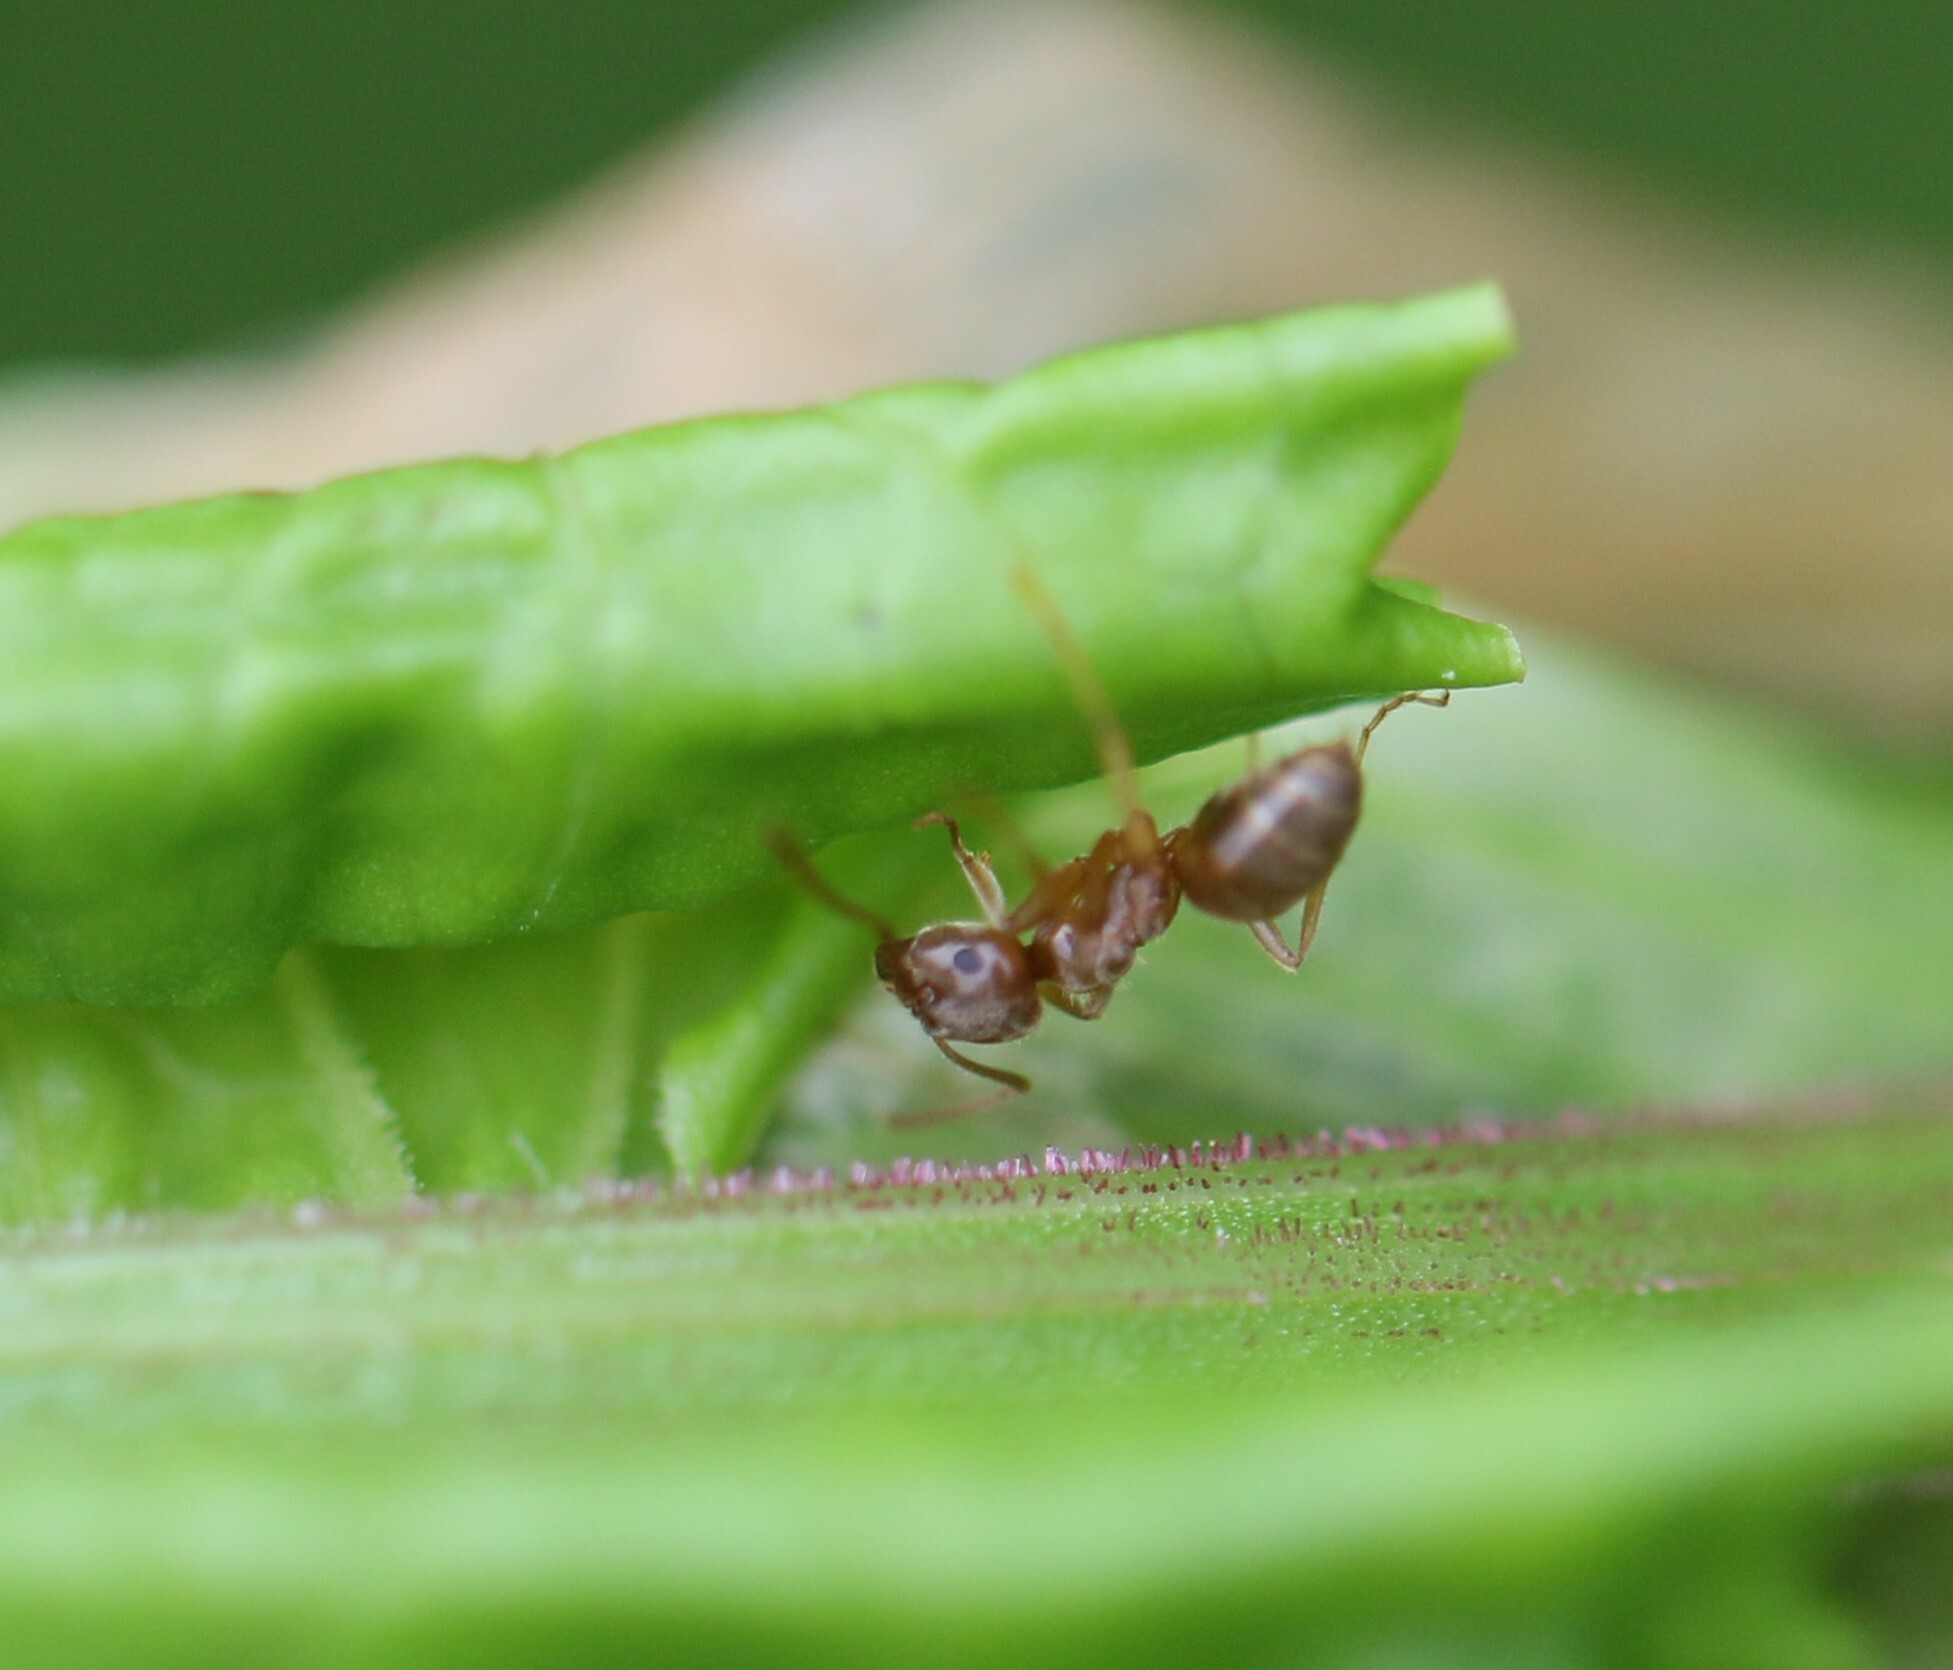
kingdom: Animalia
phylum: Arthropoda
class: Insecta
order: Hymenoptera
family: Formicidae
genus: Lasius
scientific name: Lasius neoniger
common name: Turfgrass ant
